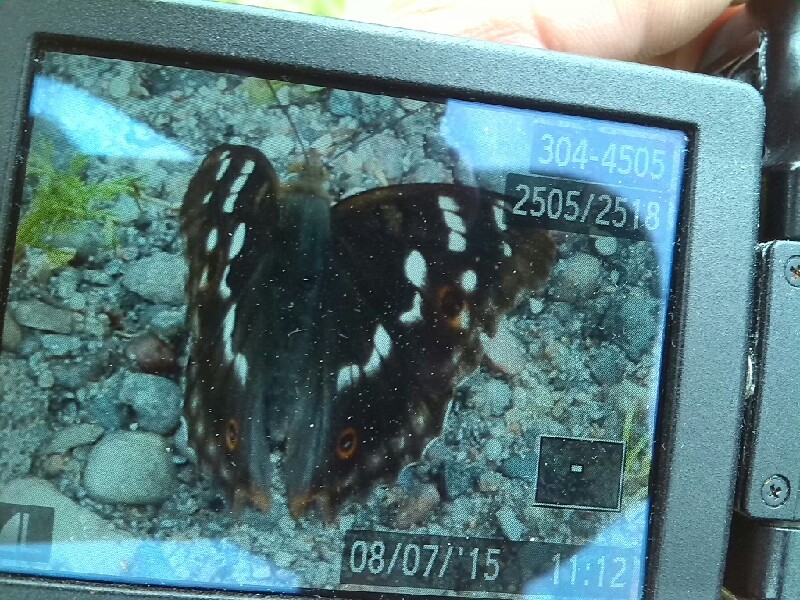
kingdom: Animalia
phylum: Arthropoda
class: Insecta
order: Lepidoptera
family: Nymphalidae
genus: Apatura
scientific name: Apatura ilia
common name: Lesser purple emperor
